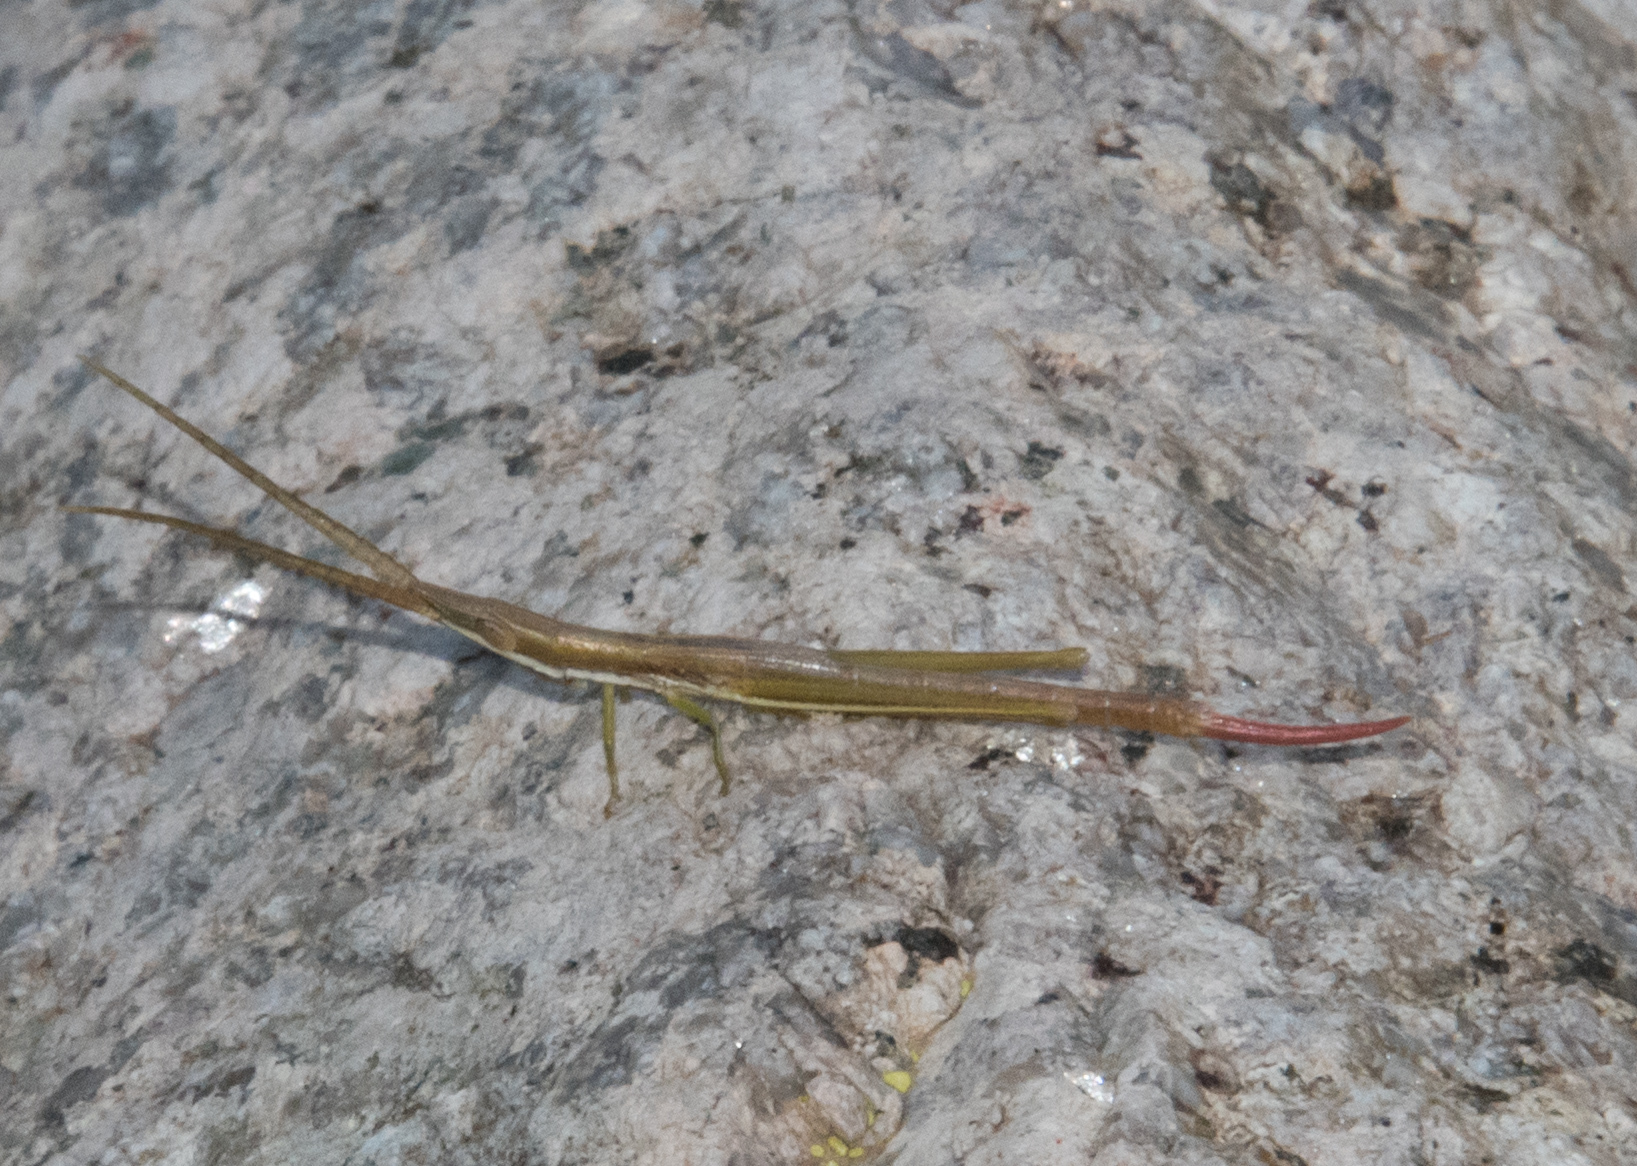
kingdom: Animalia
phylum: Arthropoda
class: Insecta
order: Orthoptera
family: Acrididae
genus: Prorocorypha
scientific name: Prorocorypha snowi
